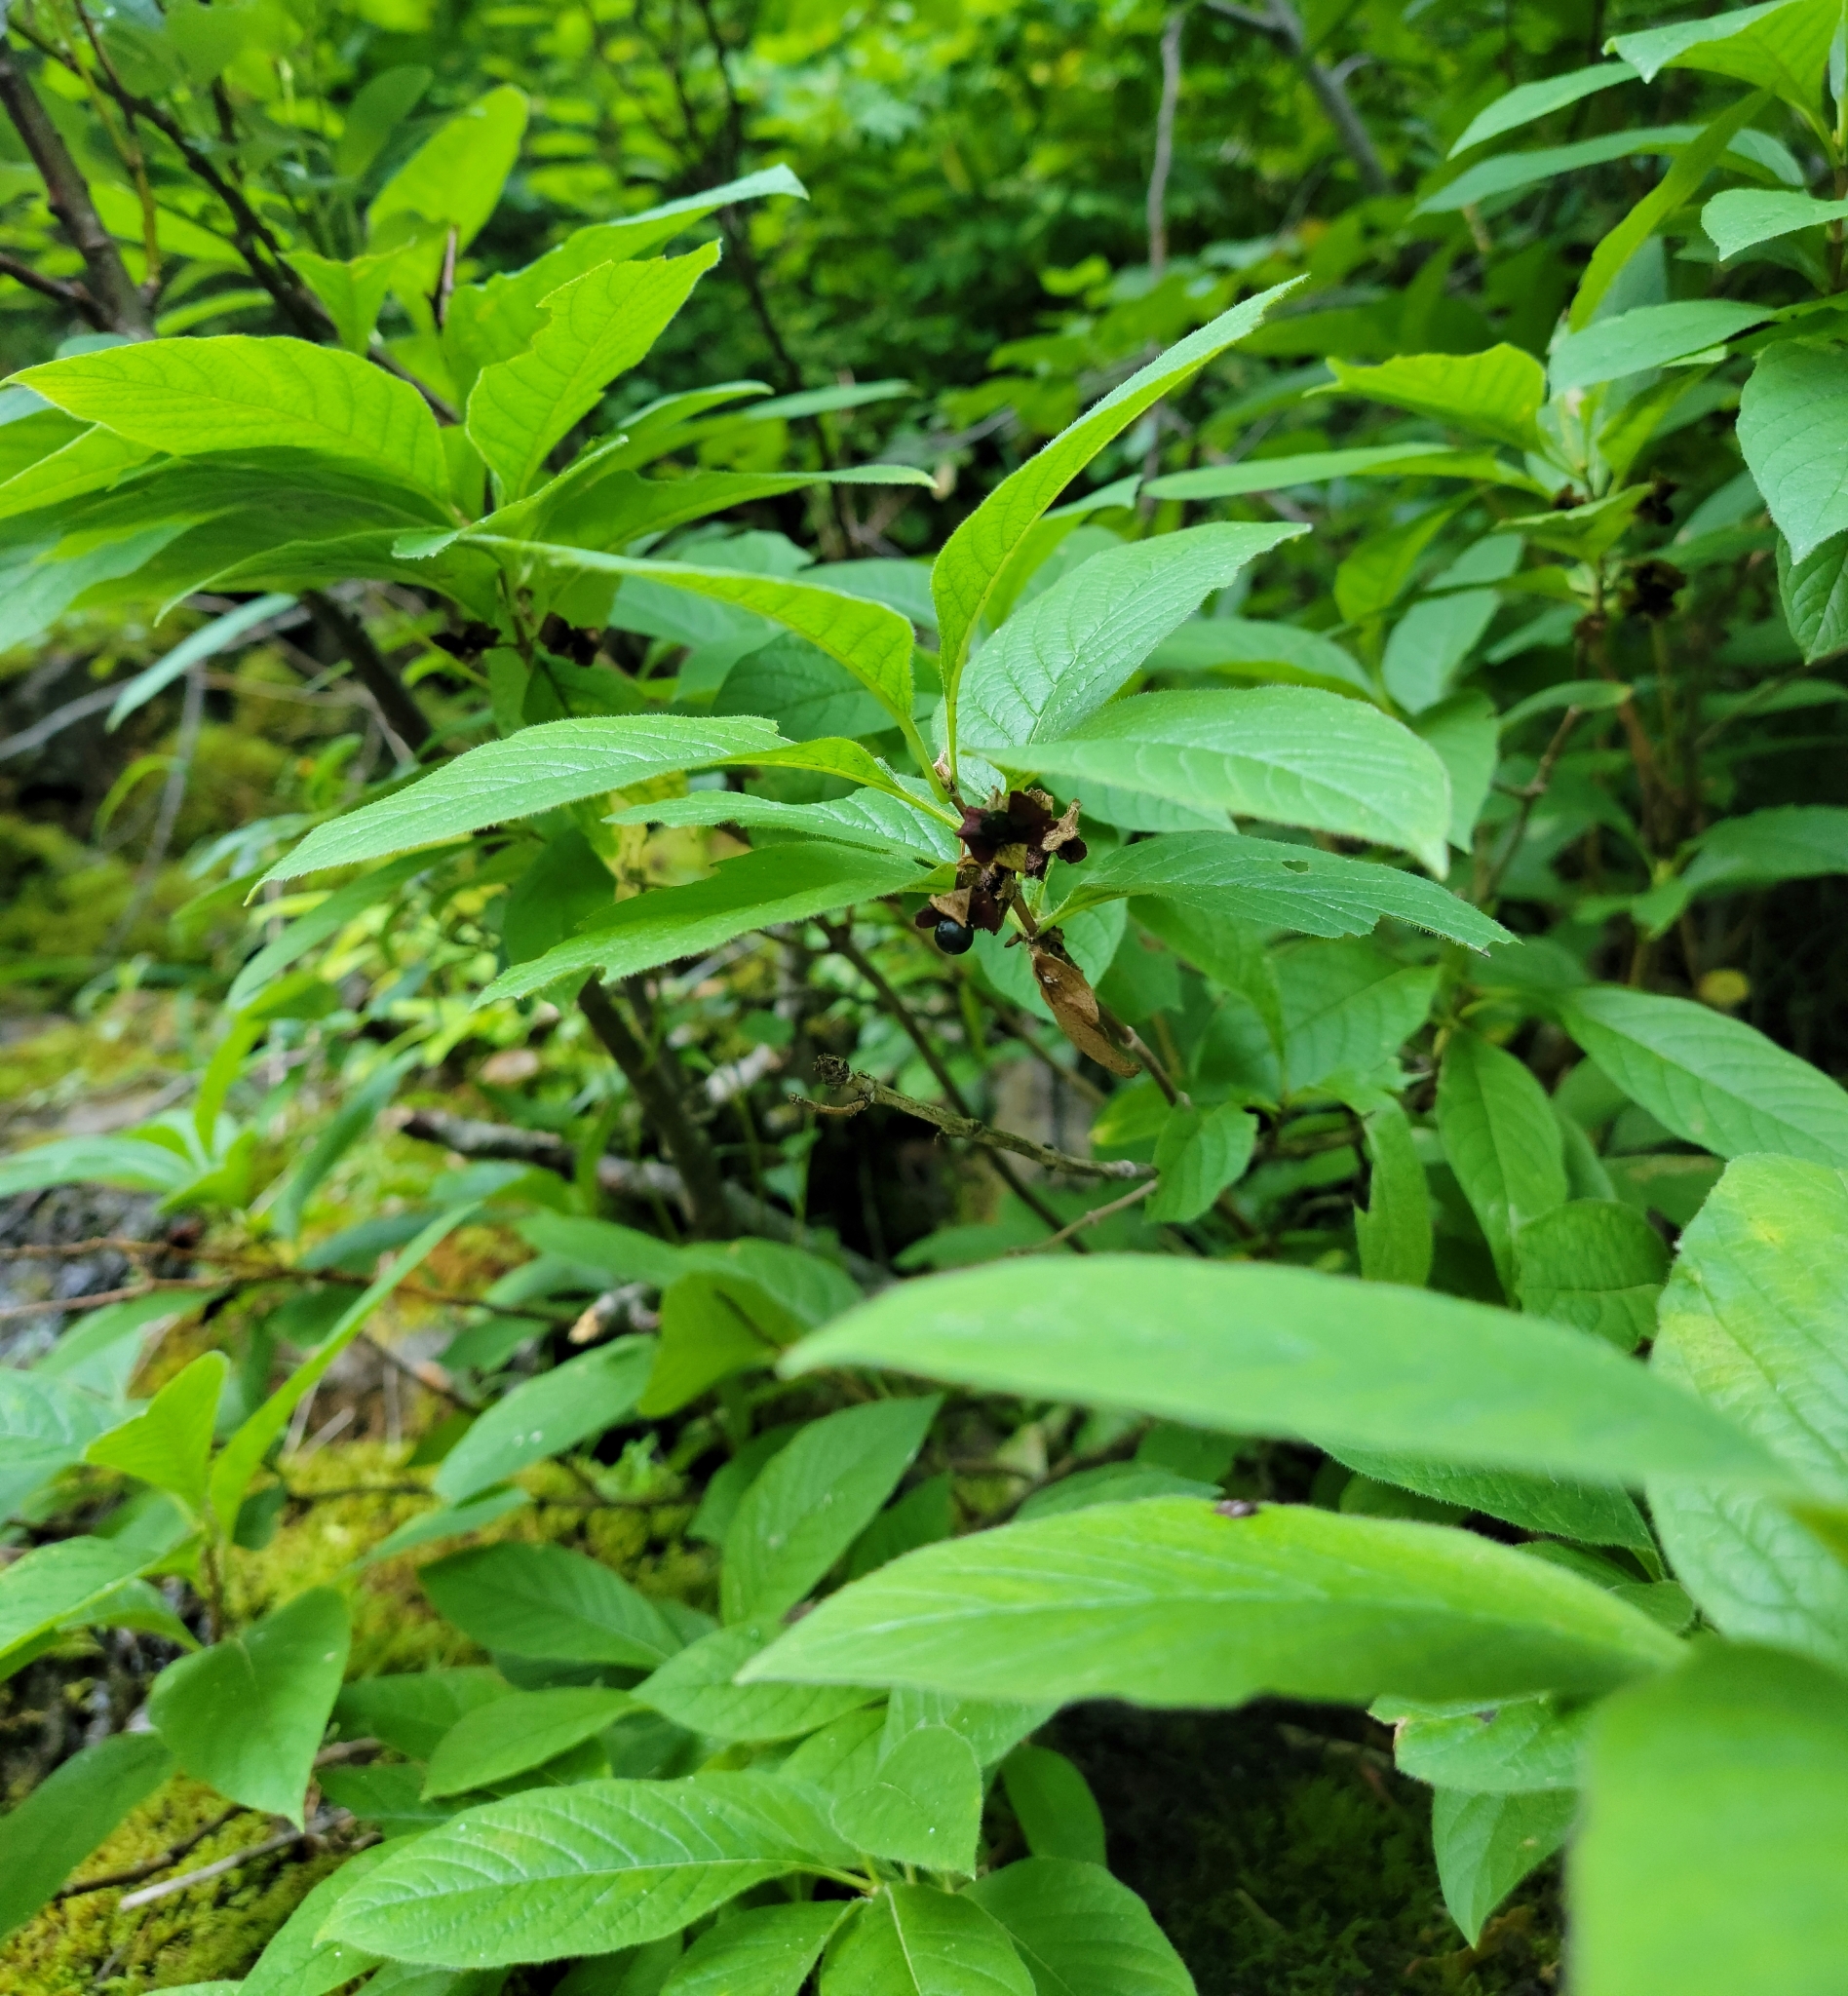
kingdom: Plantae
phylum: Tracheophyta
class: Magnoliopsida
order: Dipsacales
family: Caprifoliaceae
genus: Lonicera
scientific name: Lonicera involucrata
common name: Californian honeysuckle
